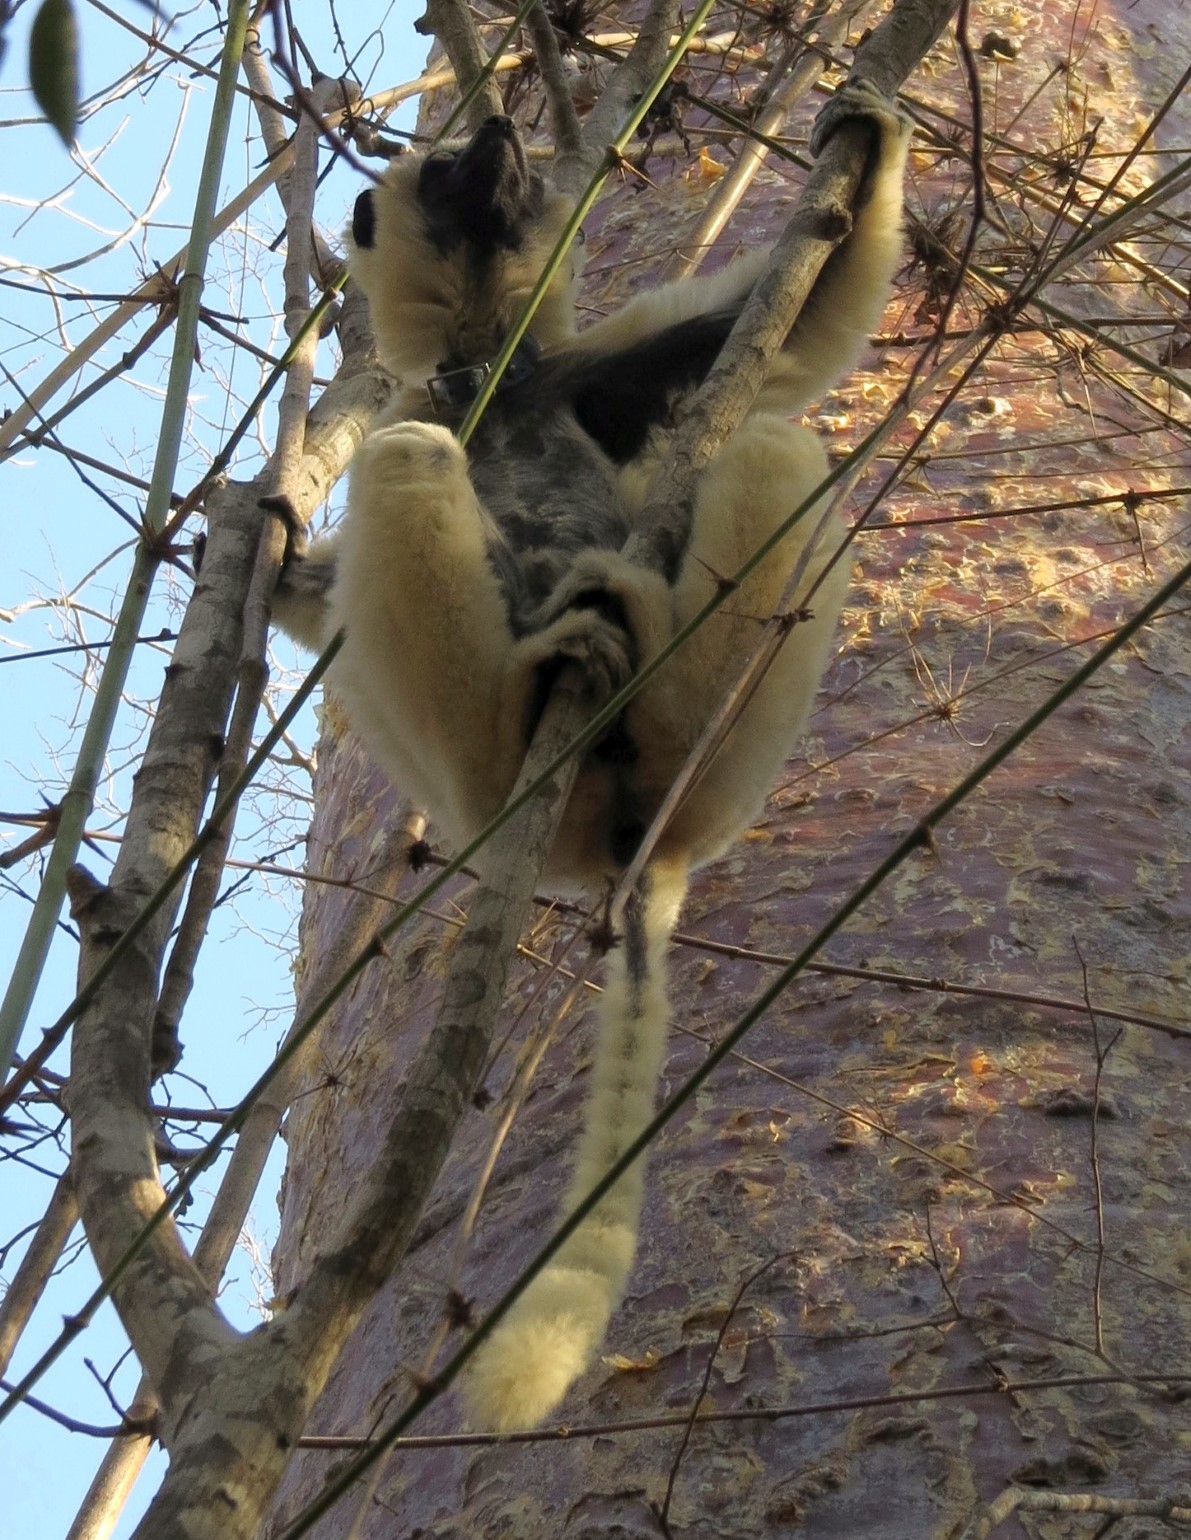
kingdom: Animalia
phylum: Chordata
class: Mammalia
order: Primates
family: Indriidae
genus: Propithecus
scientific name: Propithecus verreauxi
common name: Verreaux's sifaka
